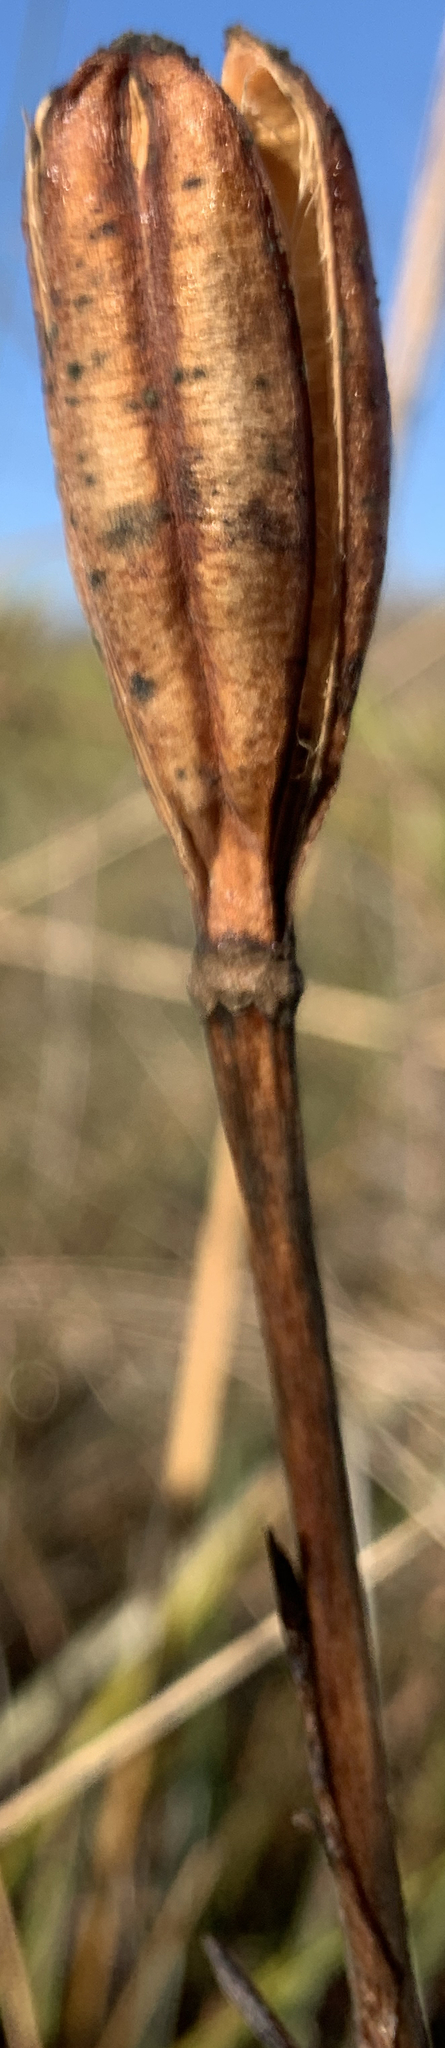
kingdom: Plantae
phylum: Tracheophyta
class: Liliopsida
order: Liliales
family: Liliaceae
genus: Lilium
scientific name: Lilium catesbaei
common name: Catesby's lily
